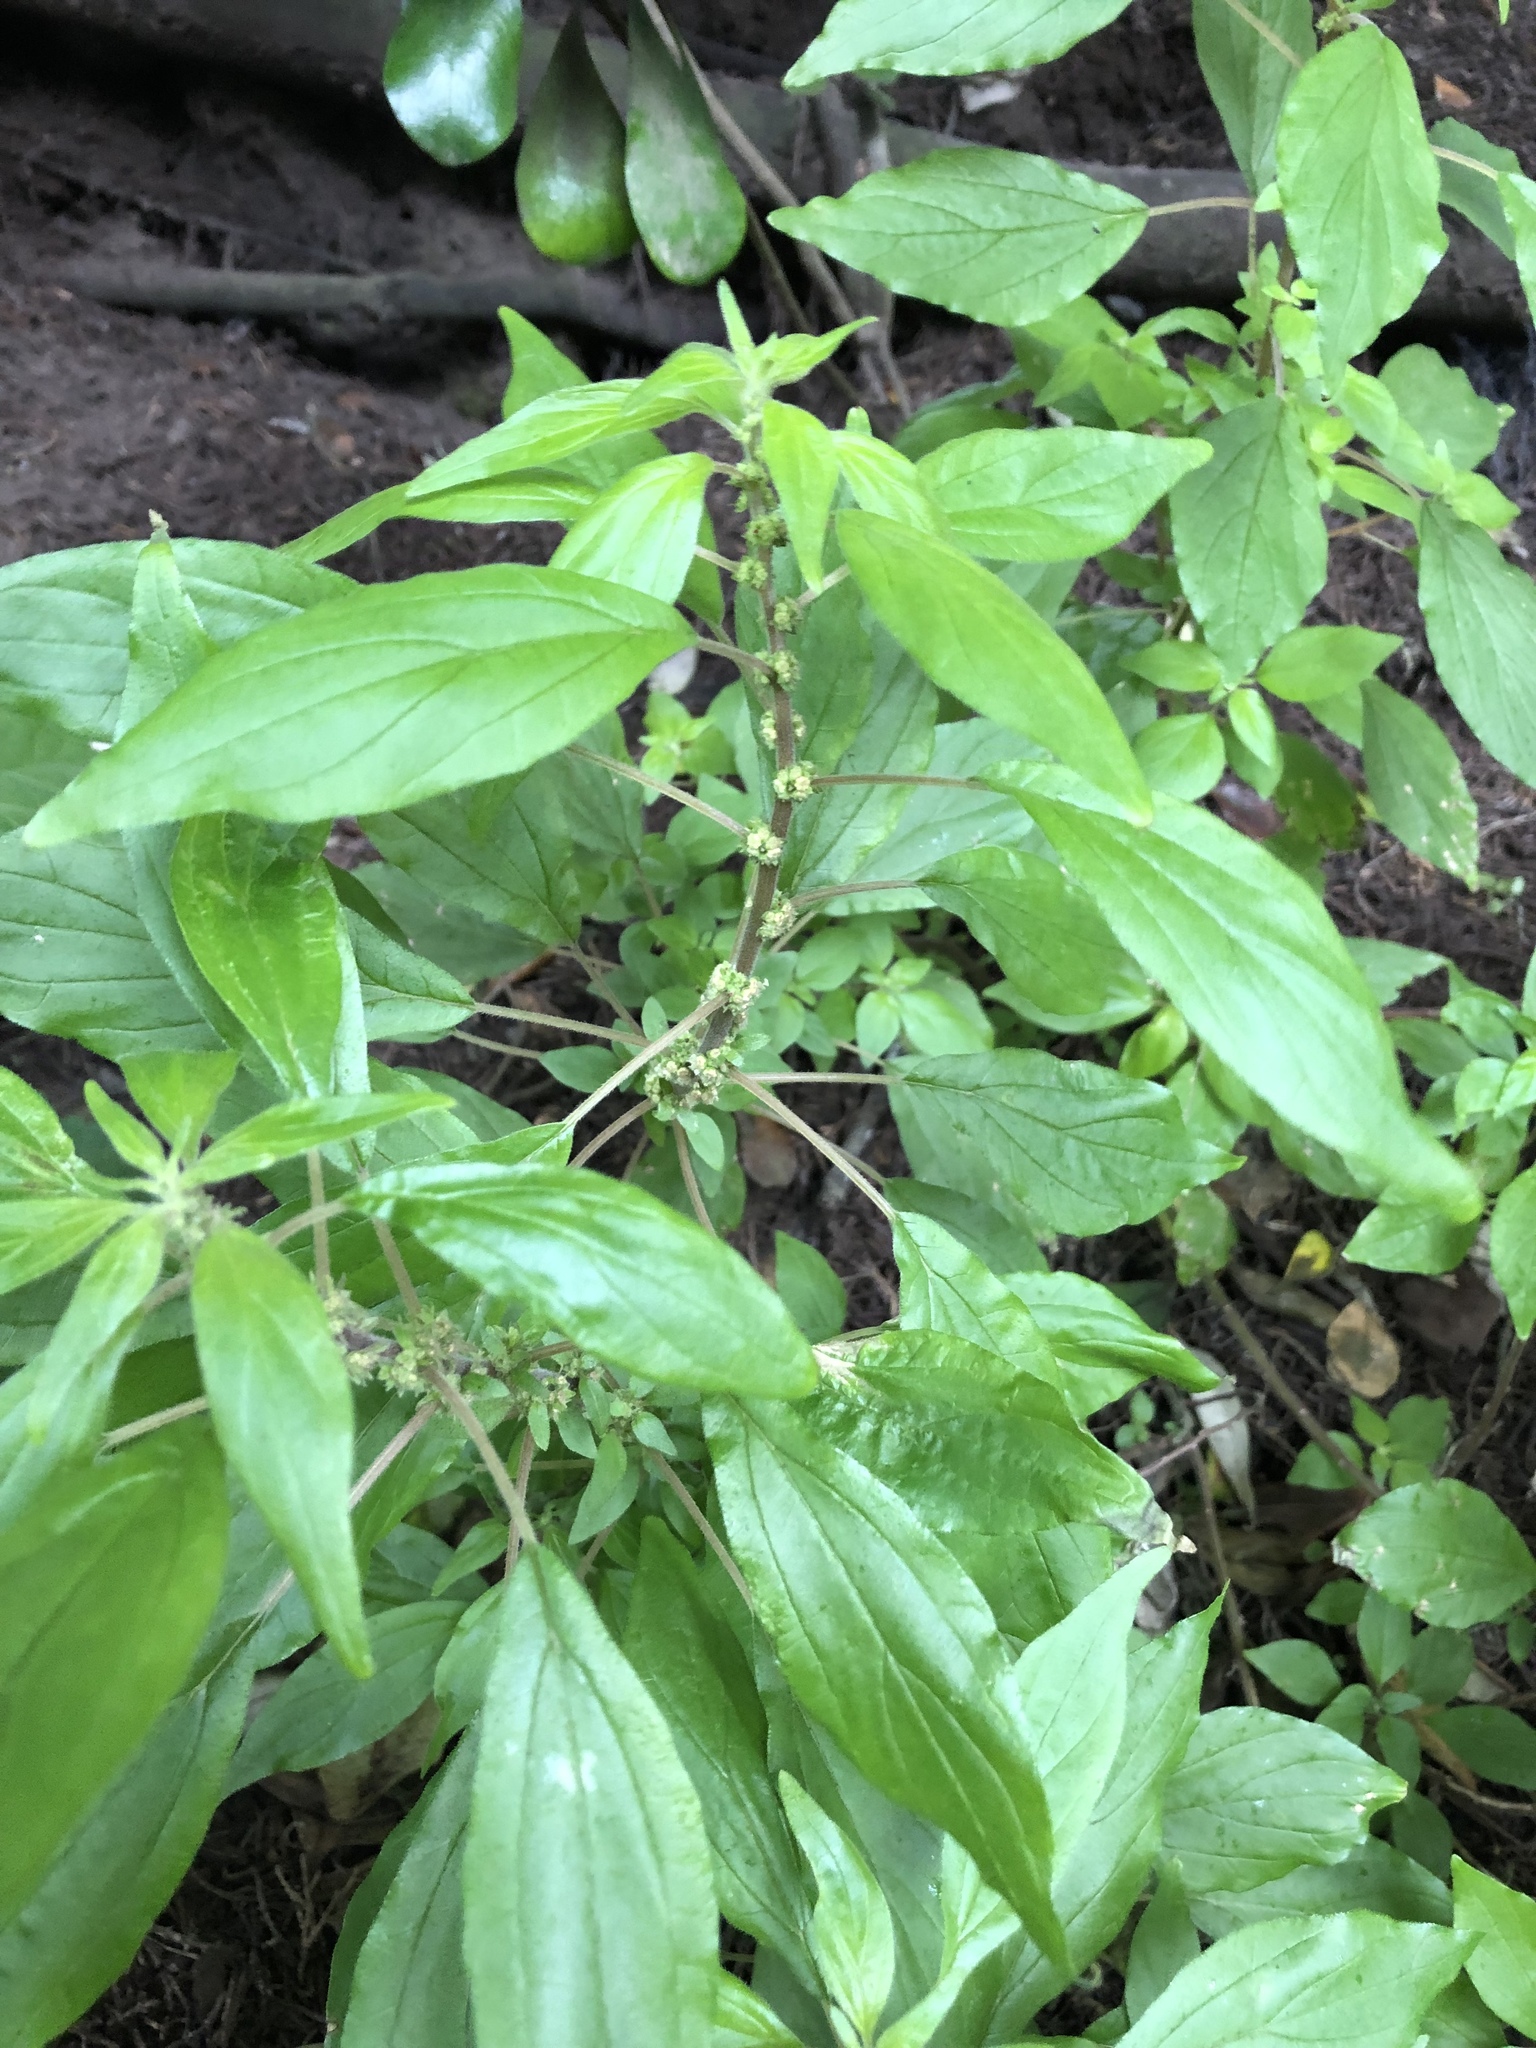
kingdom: Plantae
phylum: Tracheophyta
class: Magnoliopsida
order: Rosales
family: Urticaceae
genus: Parietaria
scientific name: Parietaria judaica
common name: Pellitory-of-the-wall
